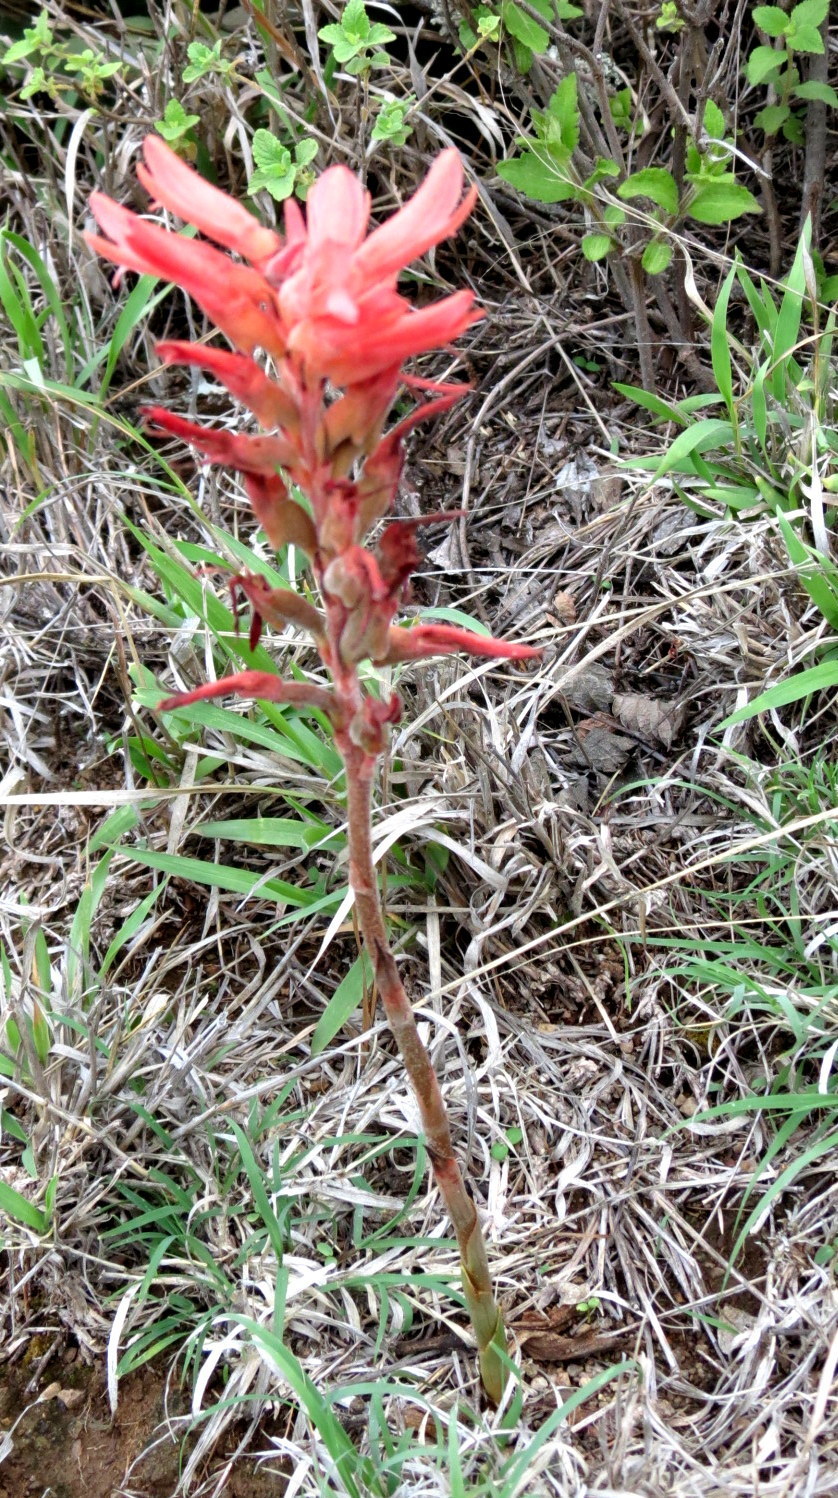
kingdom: Plantae
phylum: Tracheophyta
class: Liliopsida
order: Asparagales
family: Orchidaceae
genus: Sacoila
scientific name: Sacoila lanceolata
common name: Leafless beaked ladiestresses
